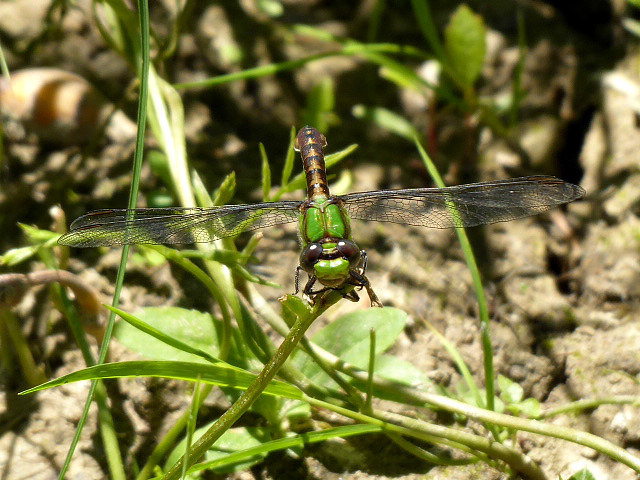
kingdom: Animalia
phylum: Arthropoda
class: Insecta
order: Odonata
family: Gomphidae
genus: Ophiogomphus
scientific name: Ophiogomphus rupinsulensis
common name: Rusty snaketail
